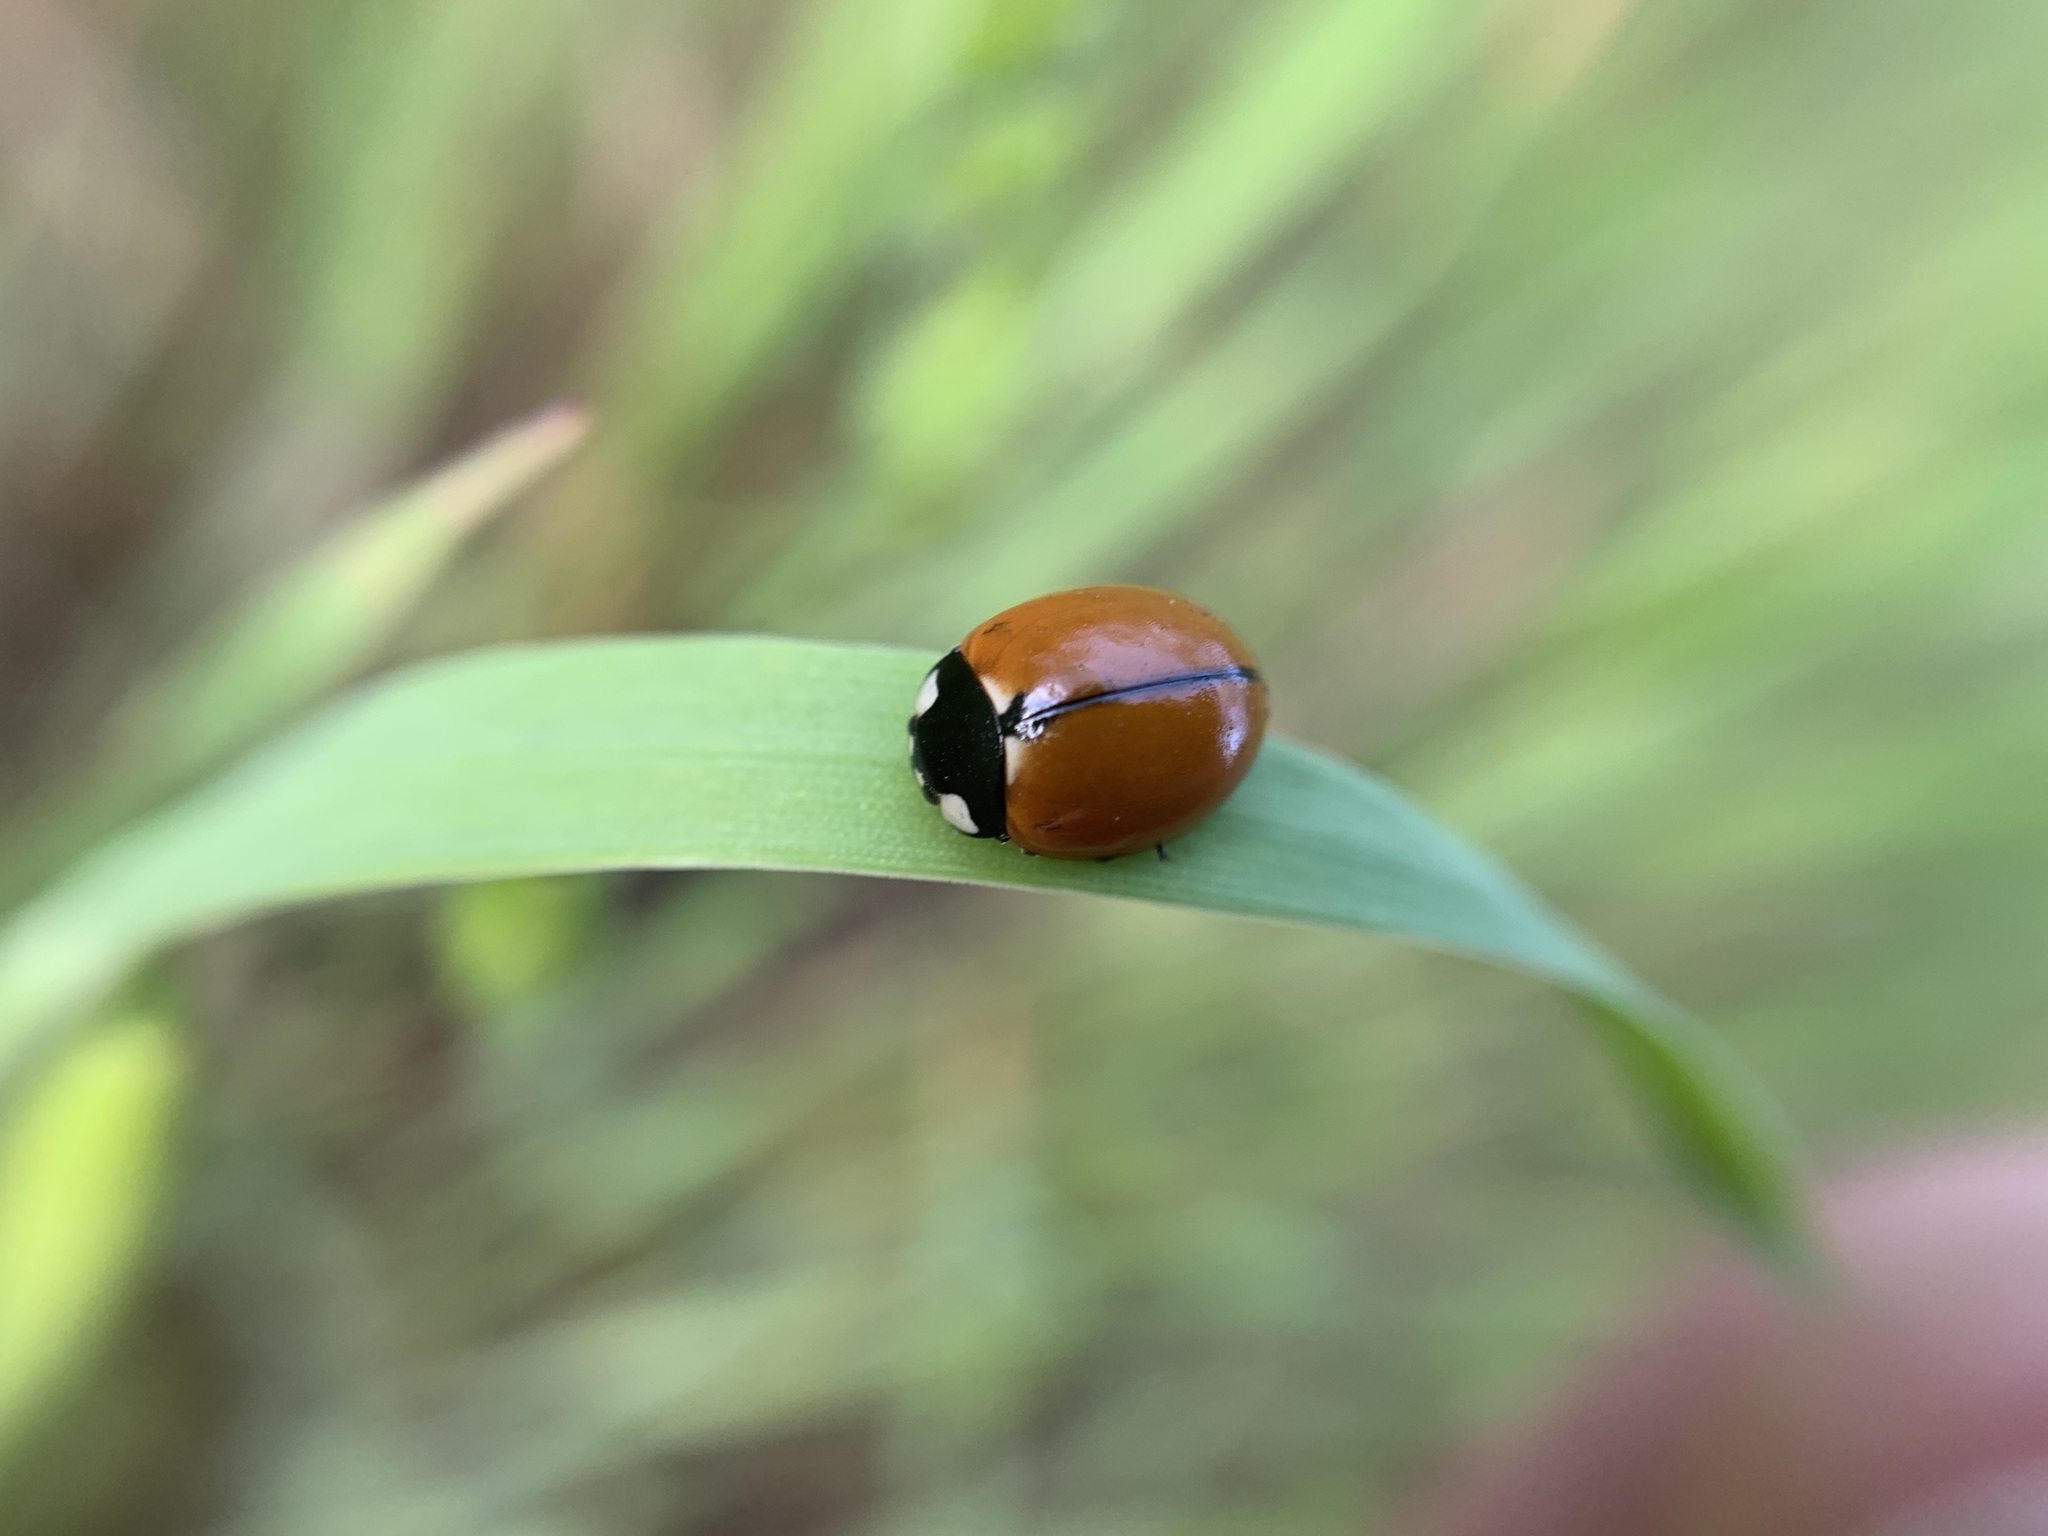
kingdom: Animalia
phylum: Arthropoda
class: Insecta
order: Coleoptera
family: Coccinellidae
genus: Coccinella
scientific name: Coccinella californica
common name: Lady beetle
